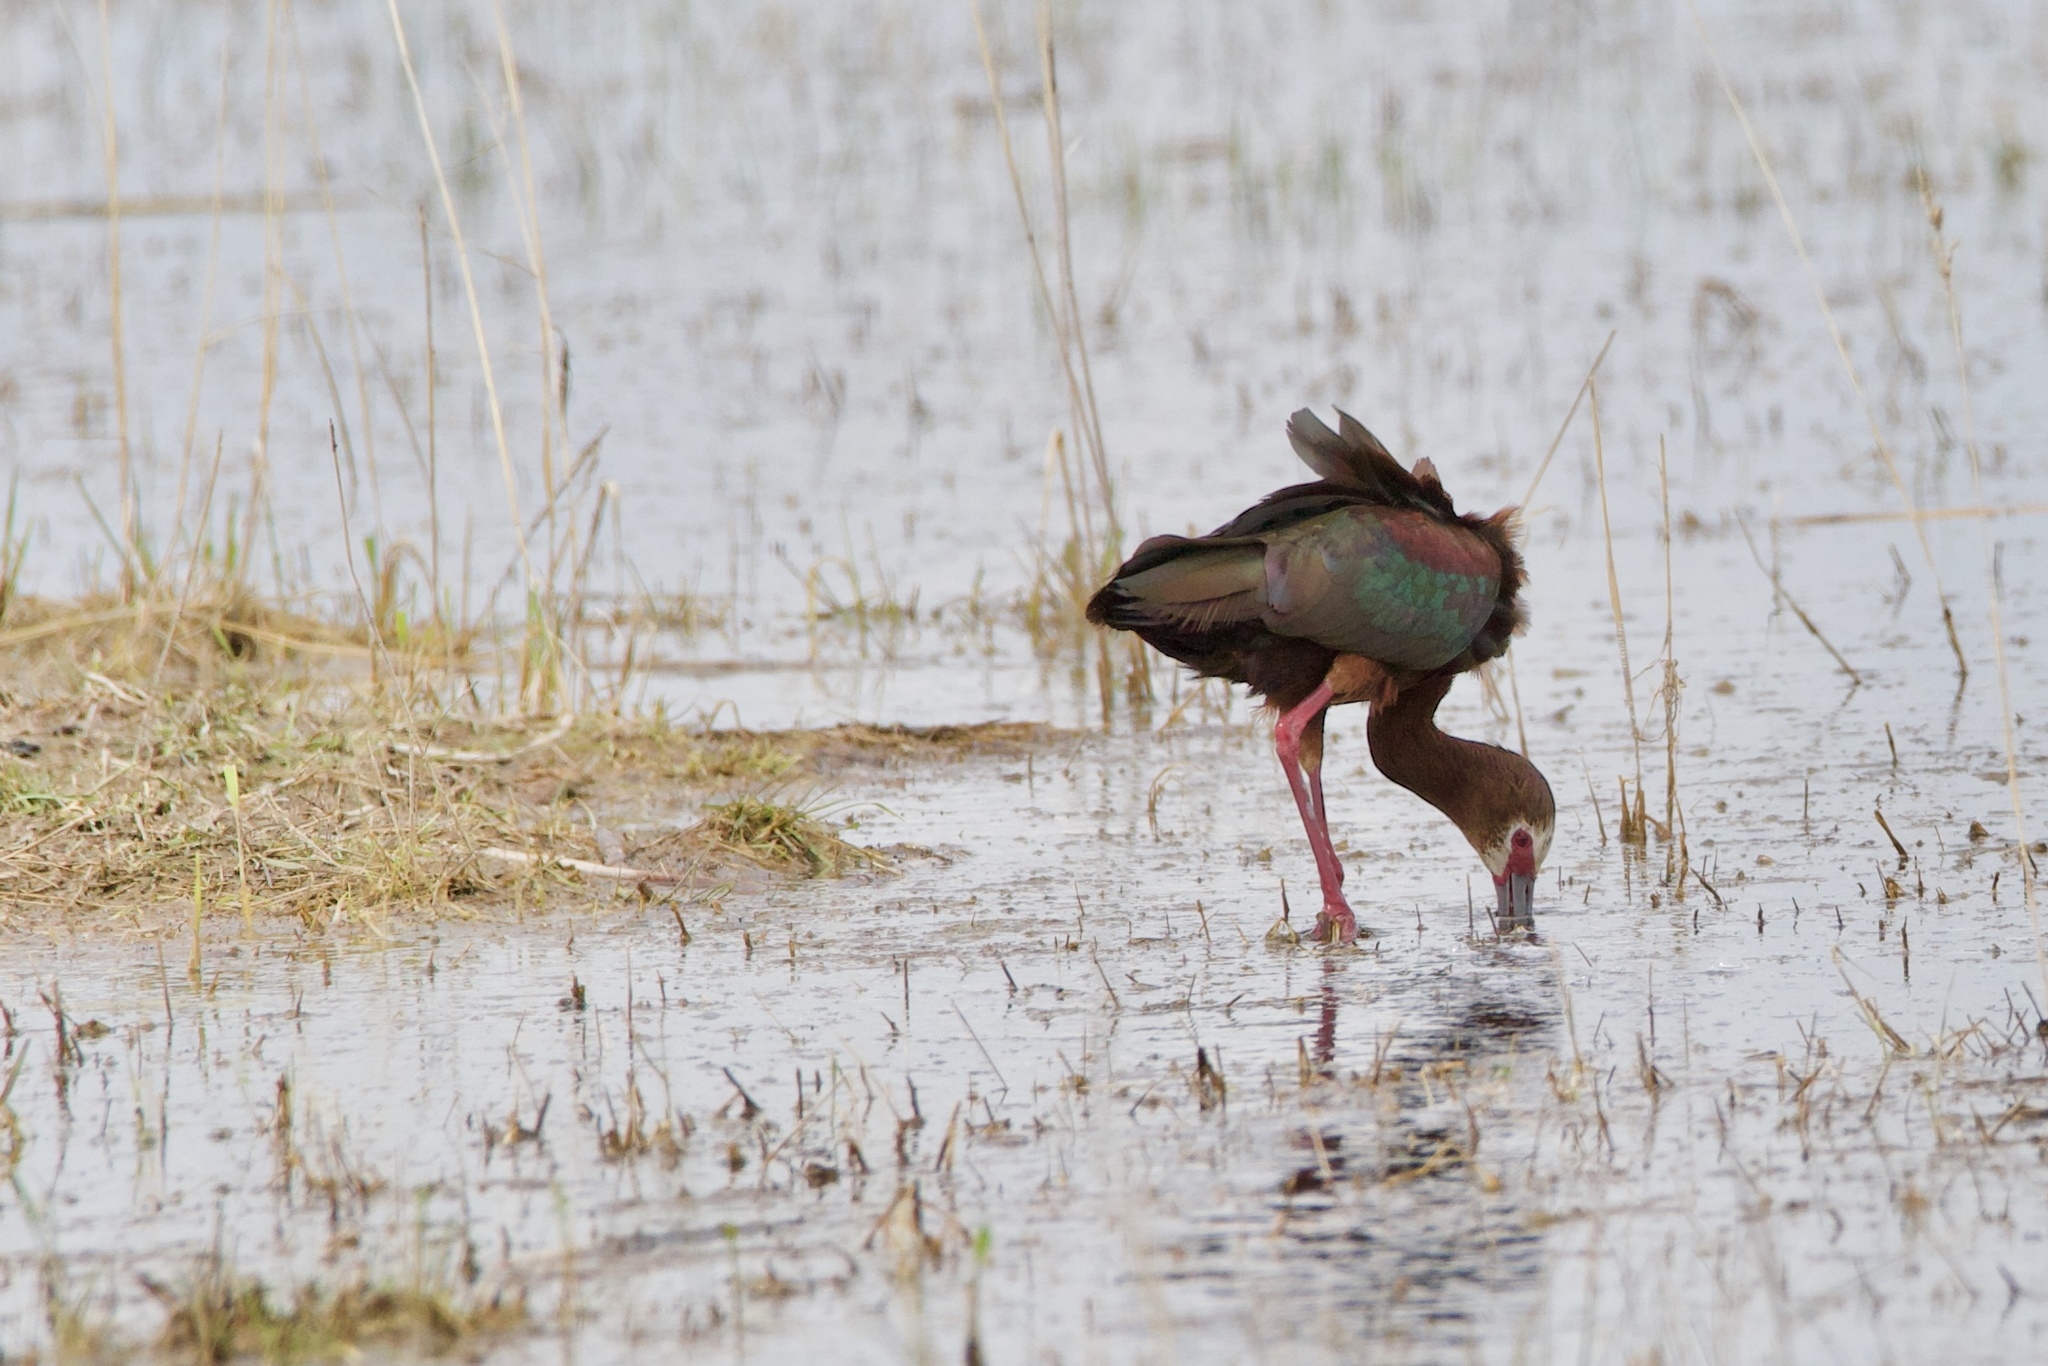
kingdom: Animalia
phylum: Chordata
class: Aves
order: Pelecaniformes
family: Threskiornithidae
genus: Plegadis
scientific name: Plegadis chihi
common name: White-faced ibis
